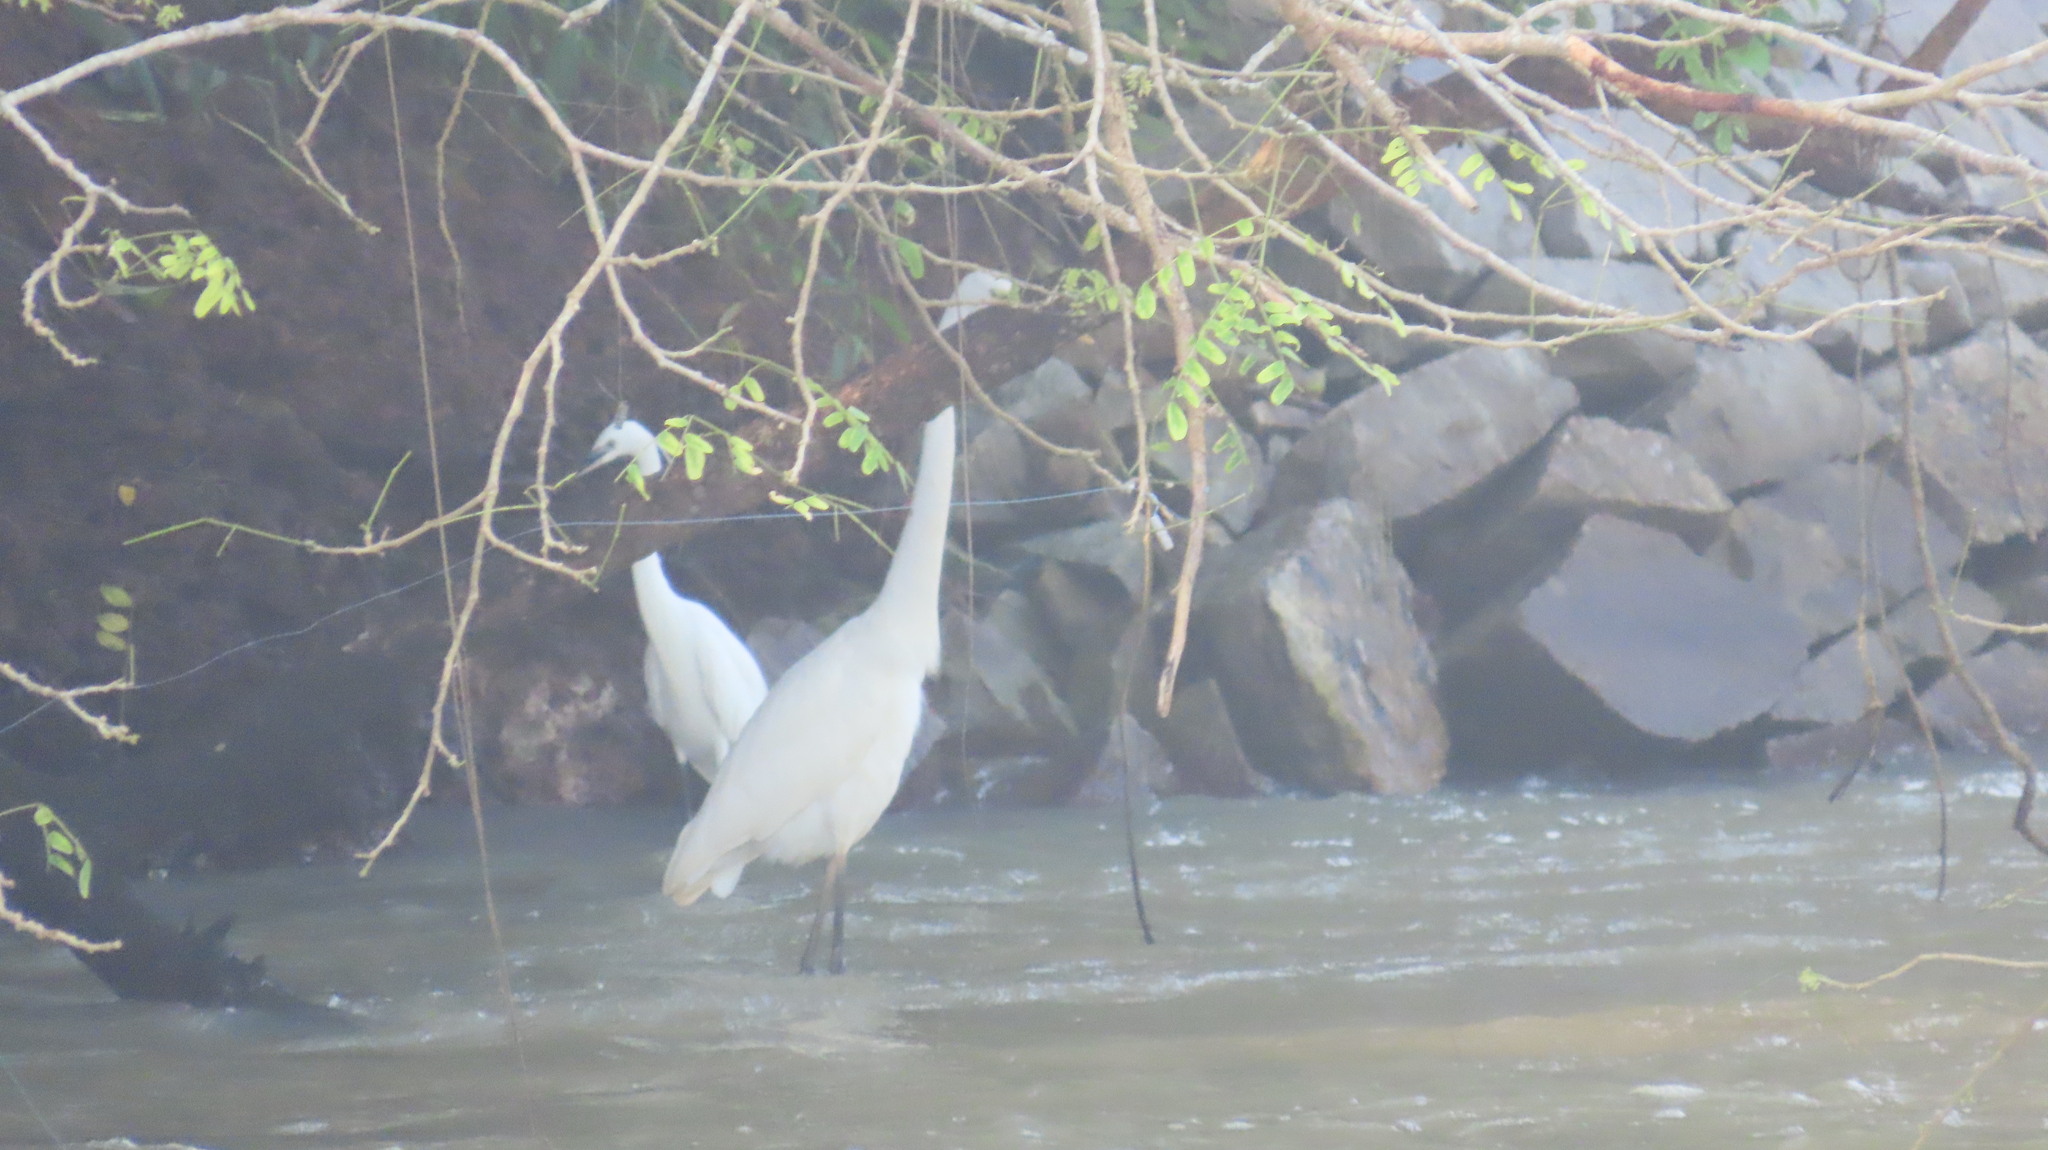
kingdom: Animalia
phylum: Chordata
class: Aves
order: Pelecaniformes
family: Ardeidae
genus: Ardea
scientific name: Ardea alba
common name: Great egret
